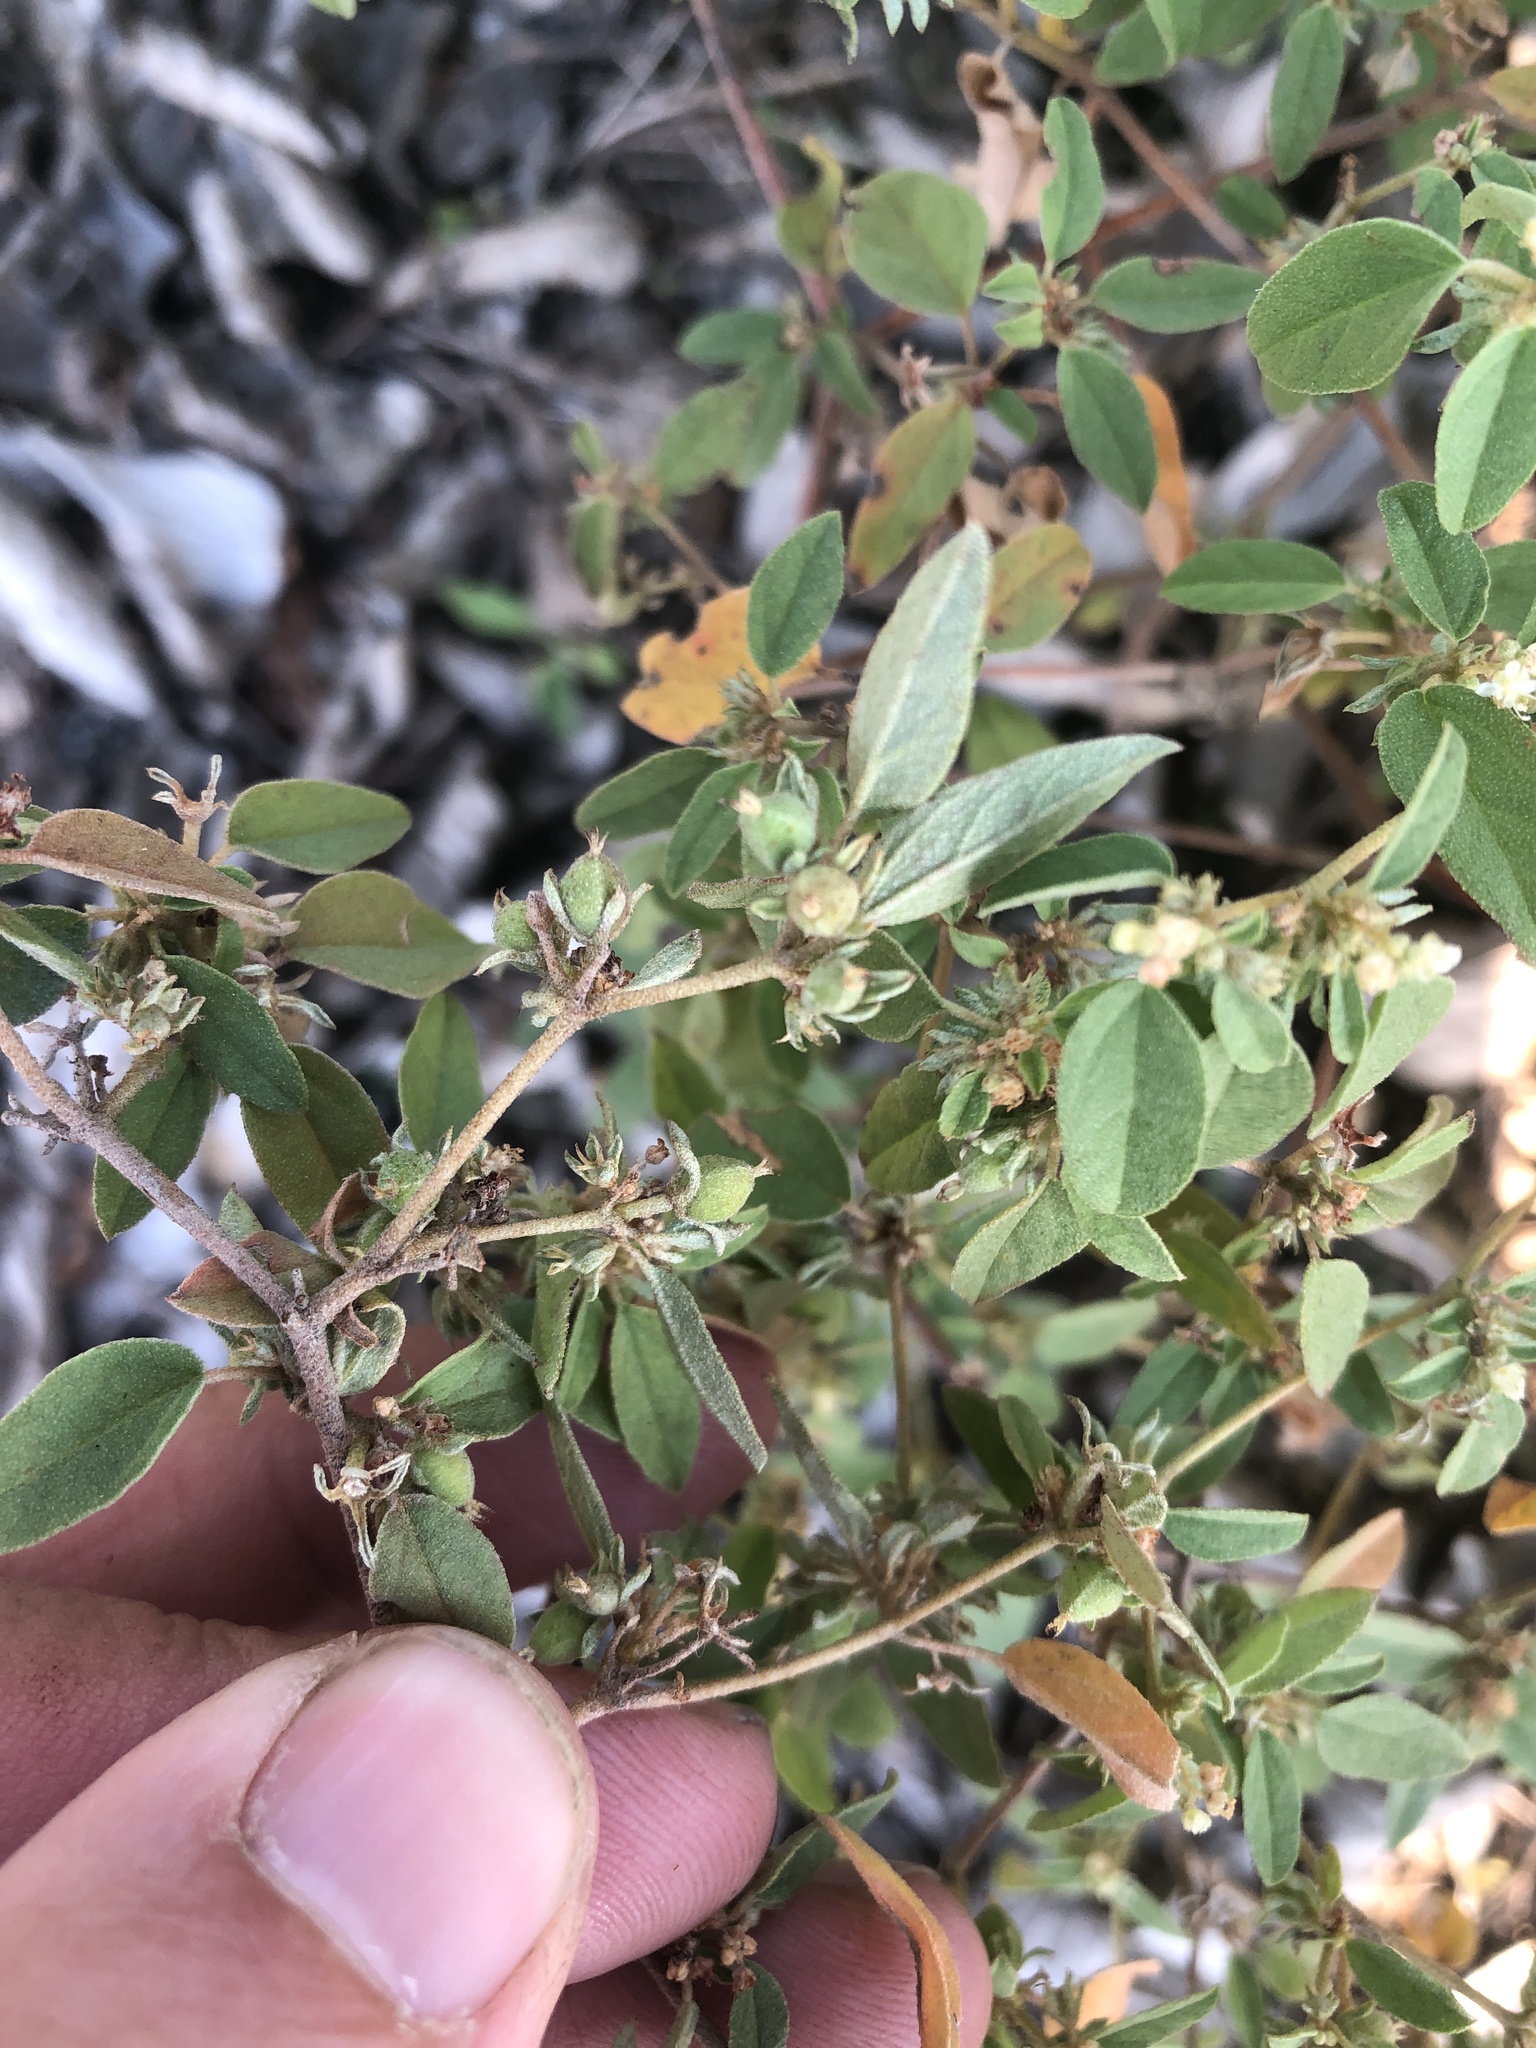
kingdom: Plantae
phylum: Tracheophyta
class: Magnoliopsida
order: Malpighiales
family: Euphorbiaceae
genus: Croton
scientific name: Croton monanthogynus
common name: One-seed croton
